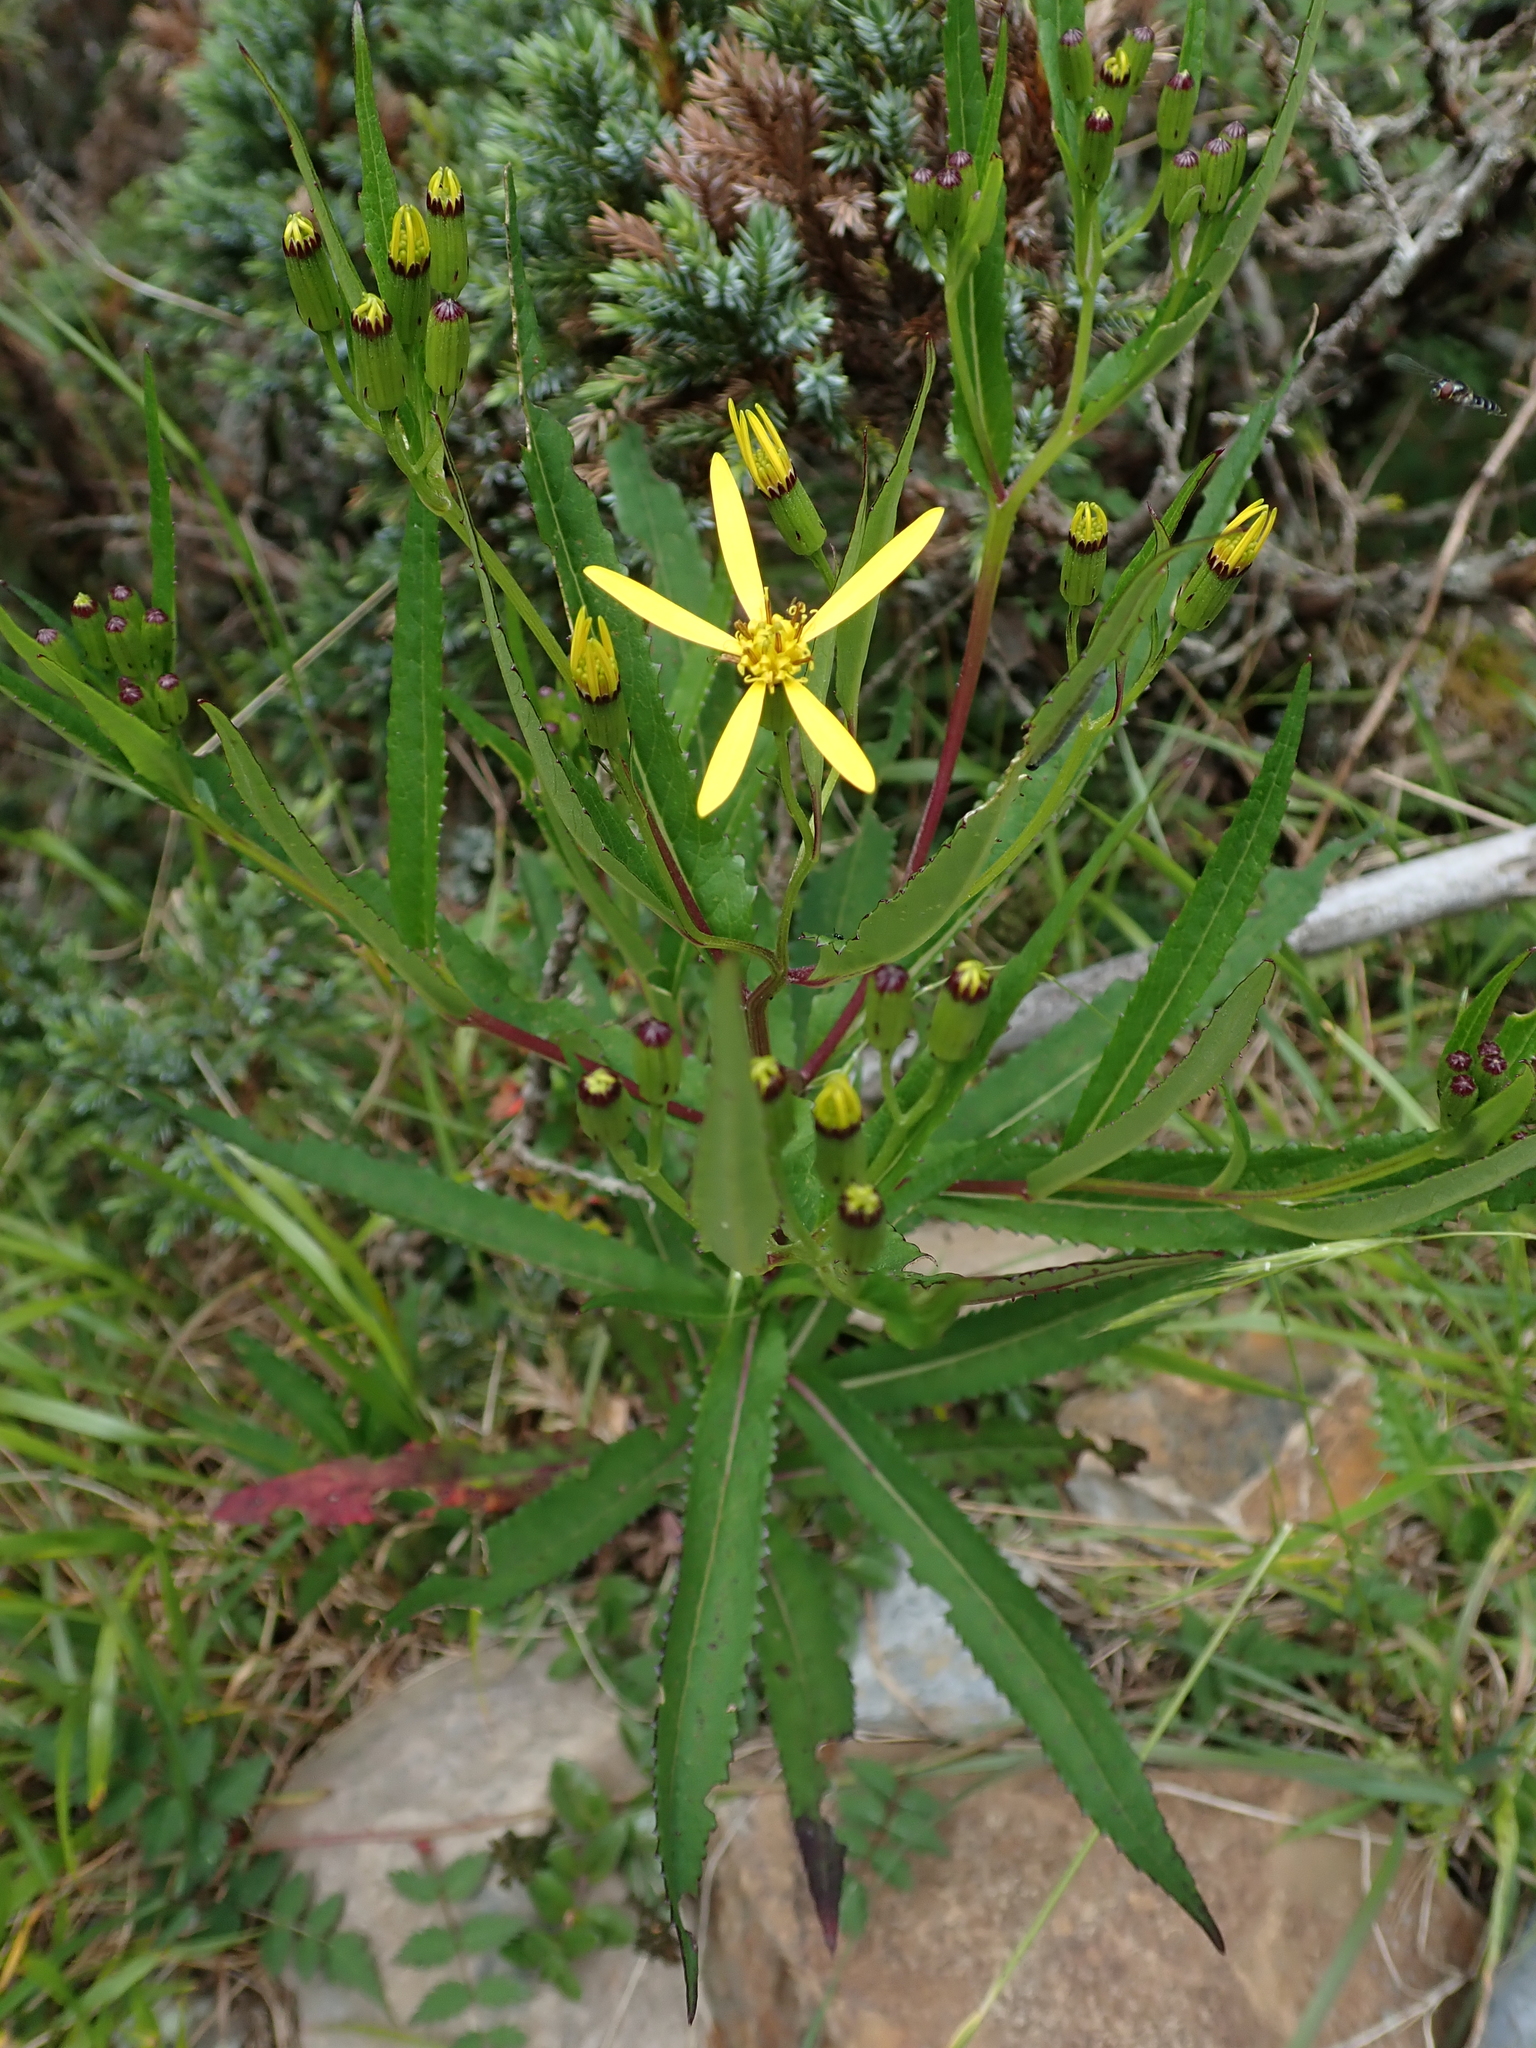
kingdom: Plantae
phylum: Tracheophyta
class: Magnoliopsida
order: Asterales
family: Asteraceae
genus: Jacobaea
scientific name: Jacobaea morrisonensis
